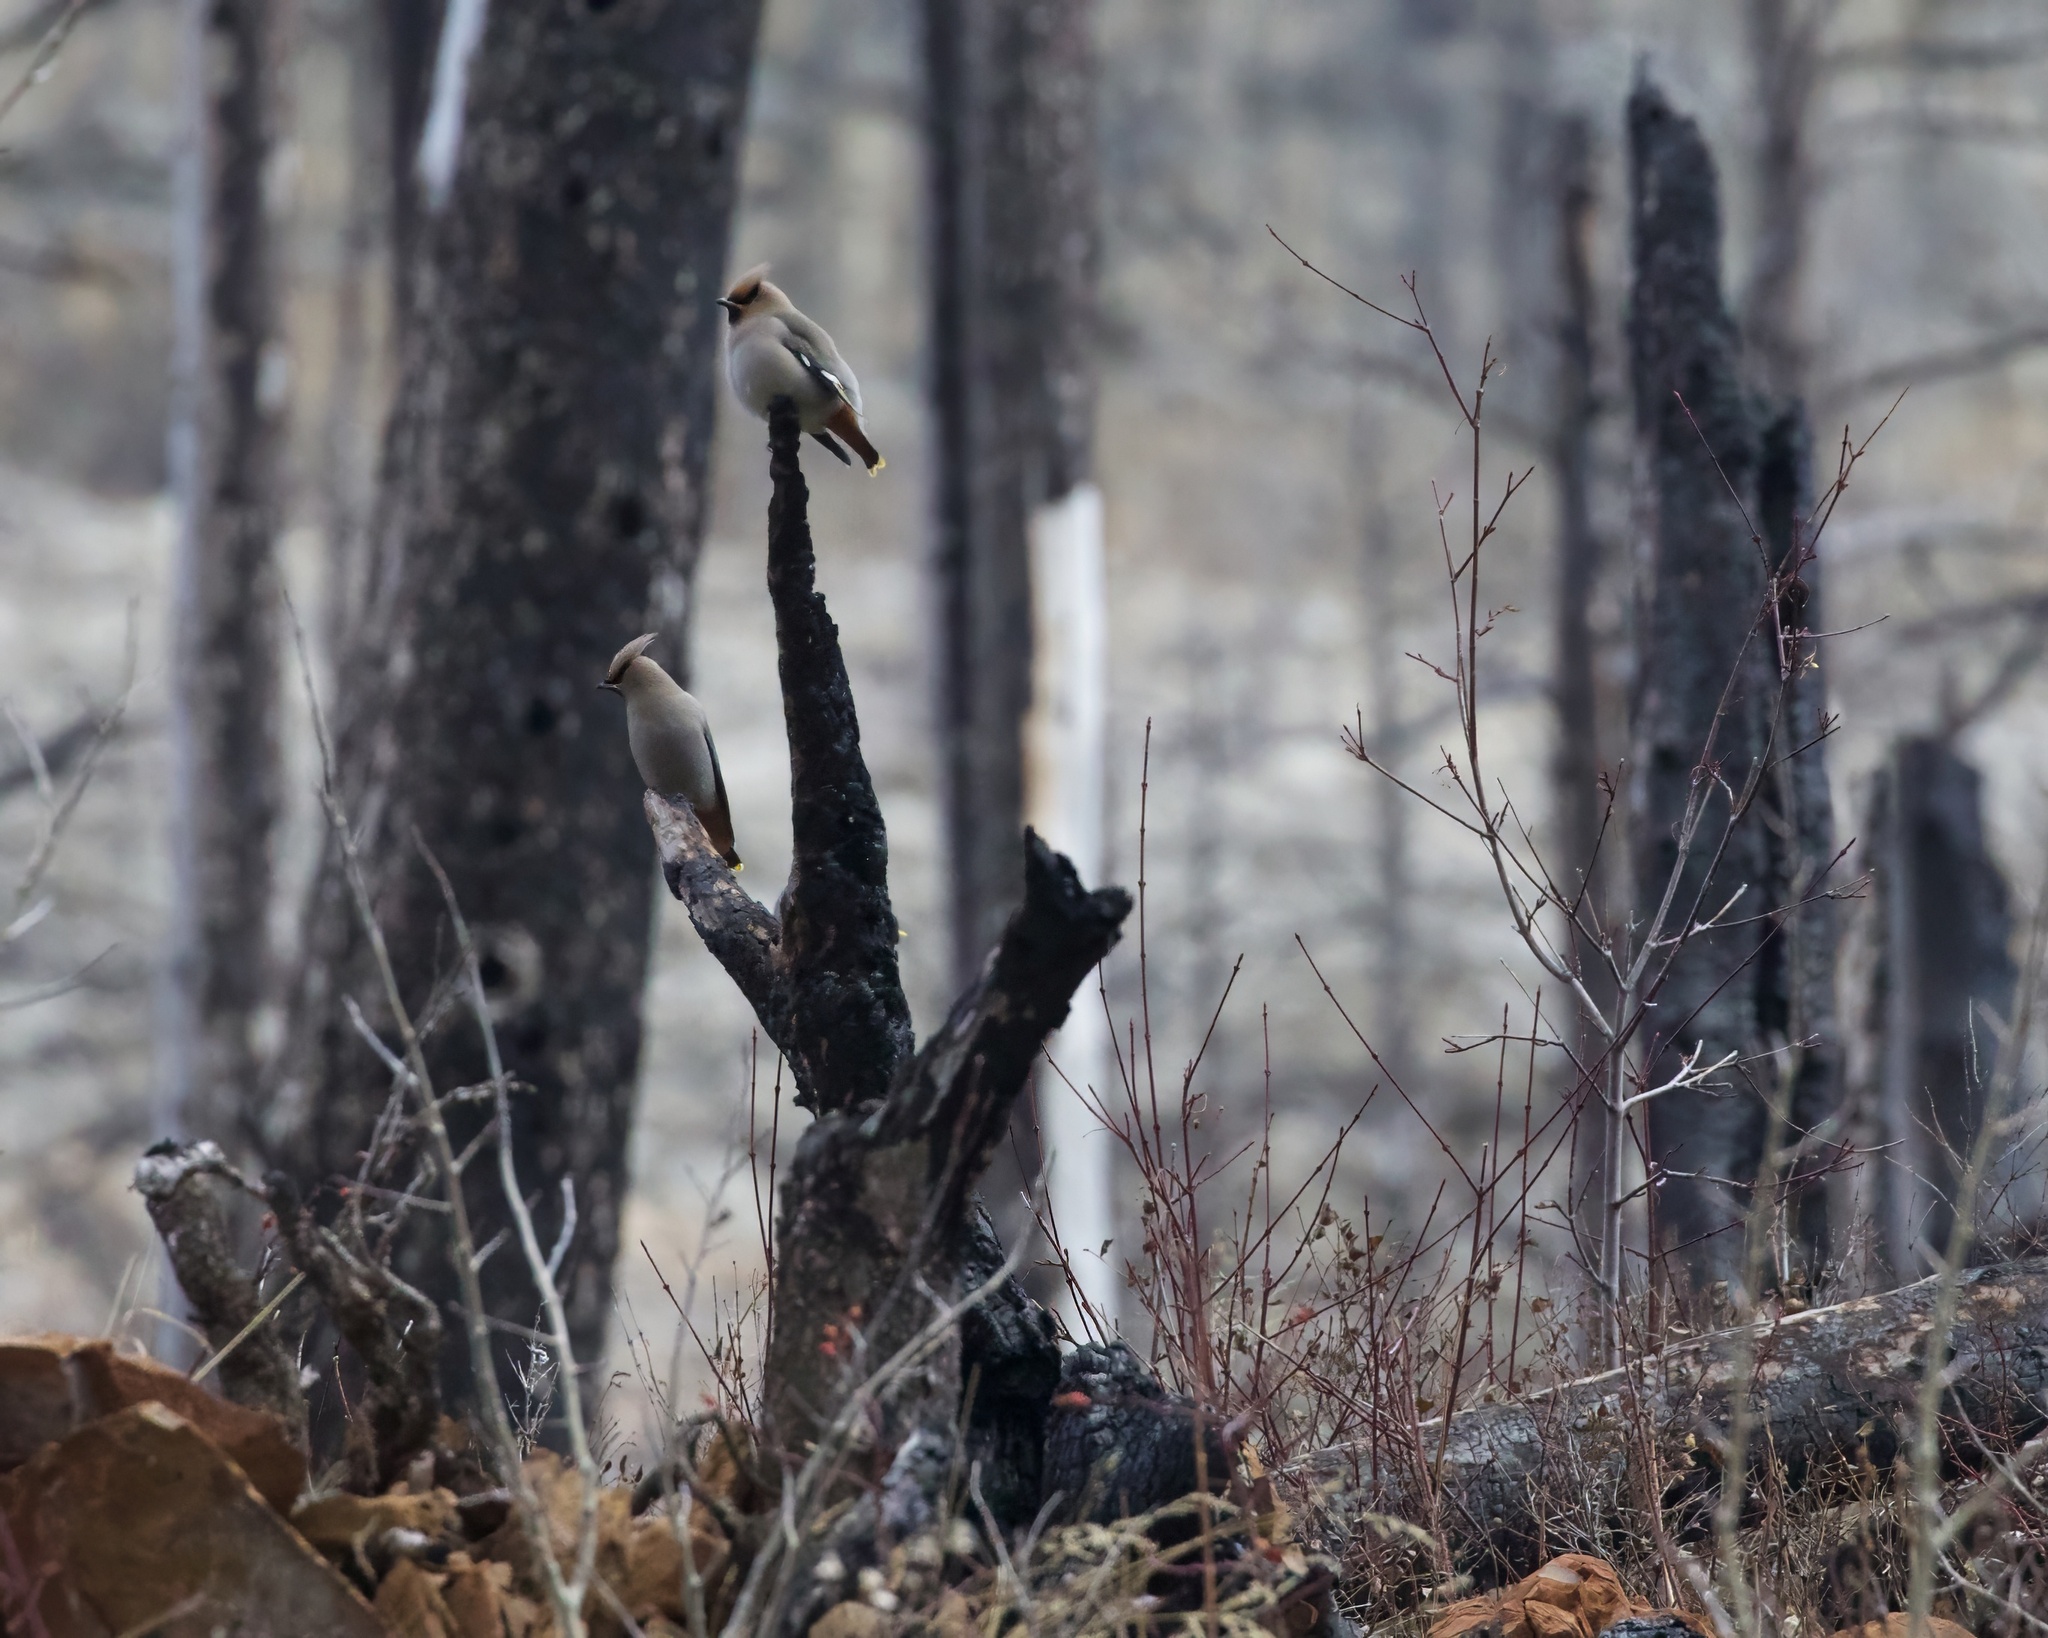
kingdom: Animalia
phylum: Chordata
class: Aves
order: Passeriformes
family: Bombycillidae
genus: Bombycilla
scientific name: Bombycilla garrulus
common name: Bohemian waxwing
